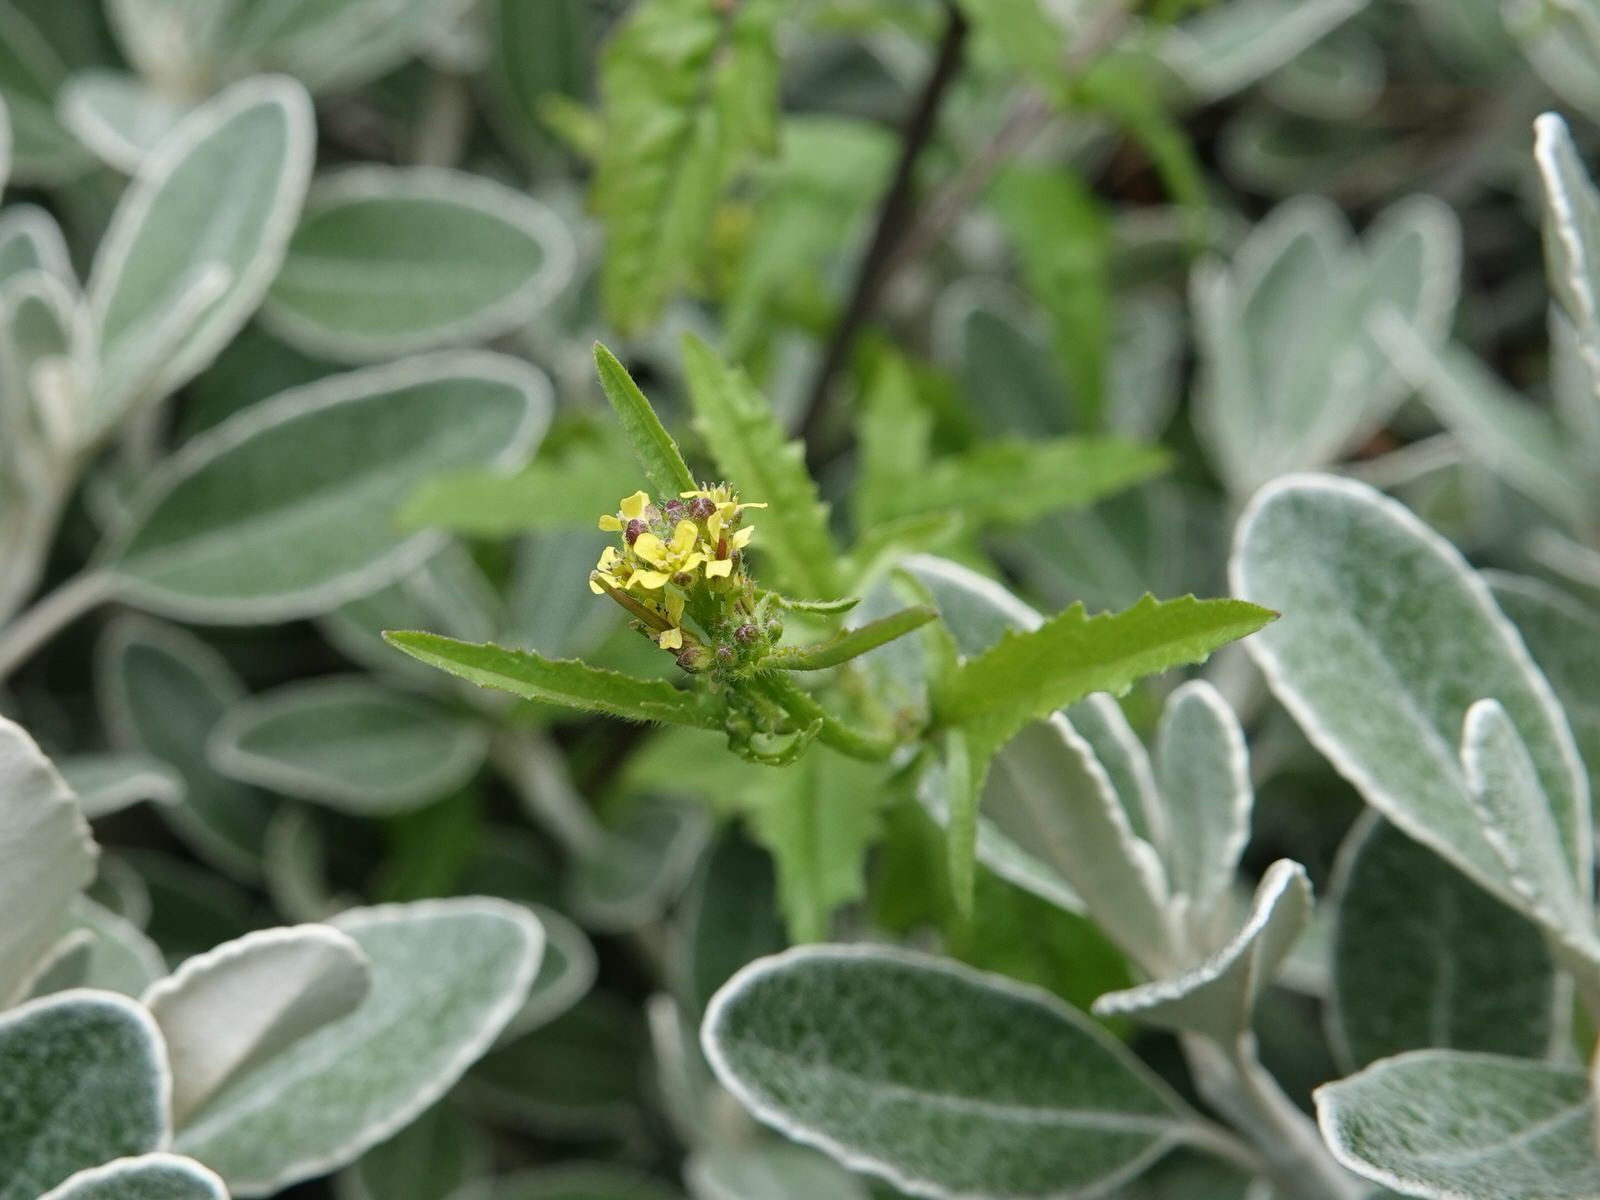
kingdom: Plantae
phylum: Tracheophyta
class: Magnoliopsida
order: Brassicales
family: Brassicaceae
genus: Sisymbrium
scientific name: Sisymbrium officinale
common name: Hedge mustard
